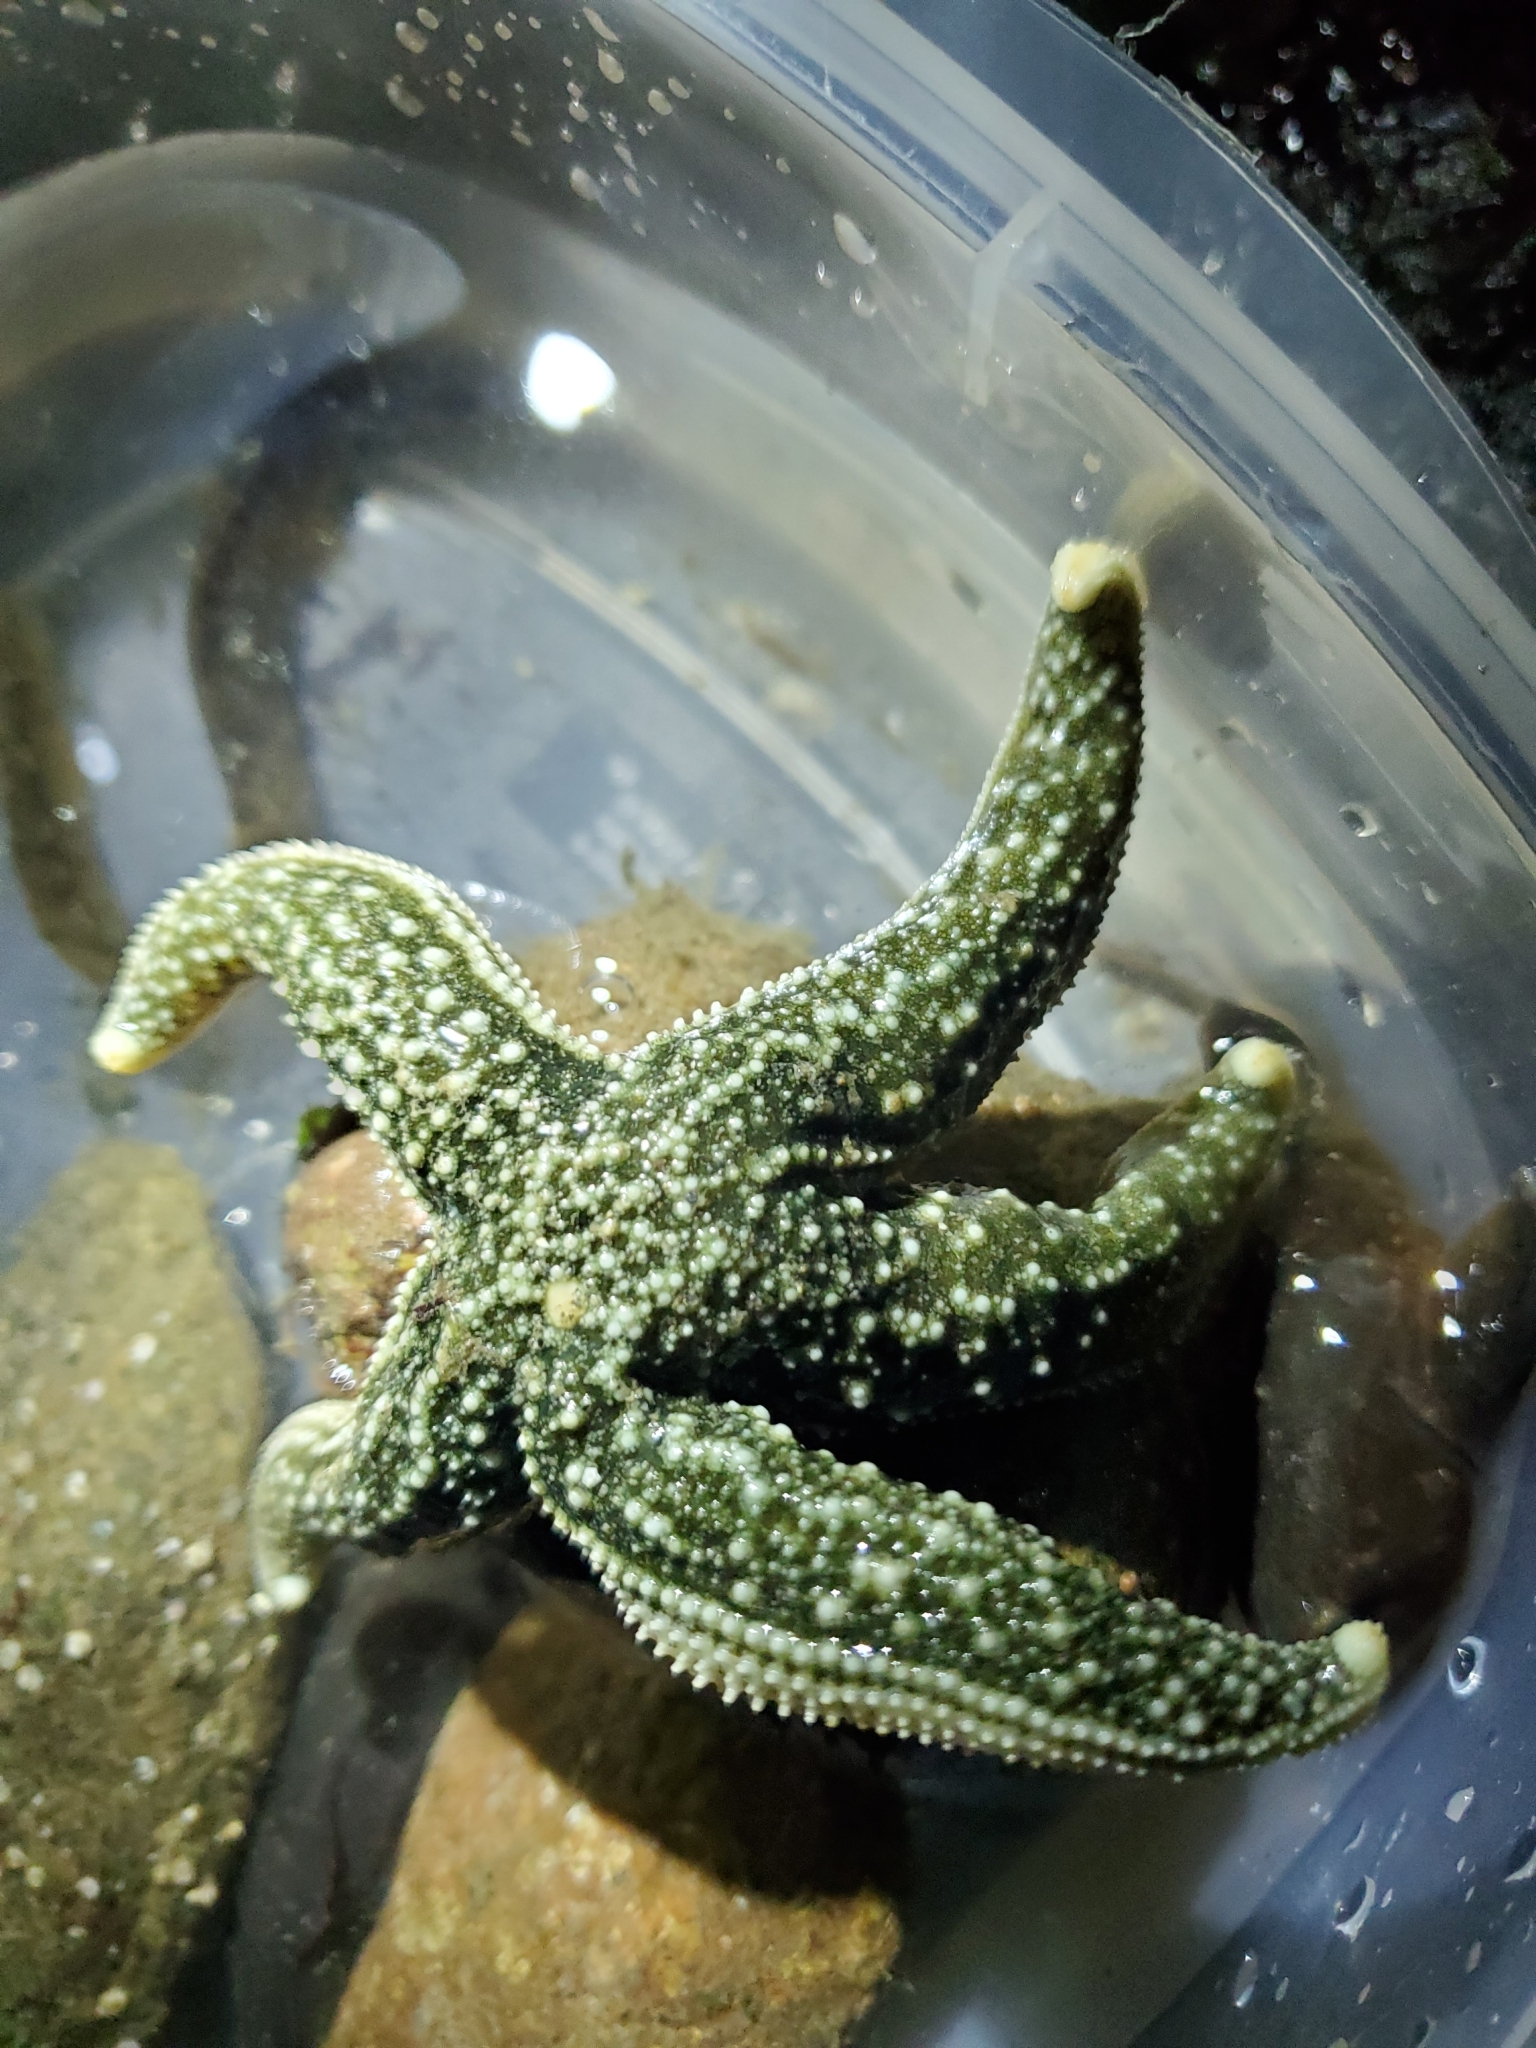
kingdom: Animalia
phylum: Echinodermata
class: Asteroidea
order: Forcipulatida
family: Asteriidae
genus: Evasterias
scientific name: Evasterias troschelii
